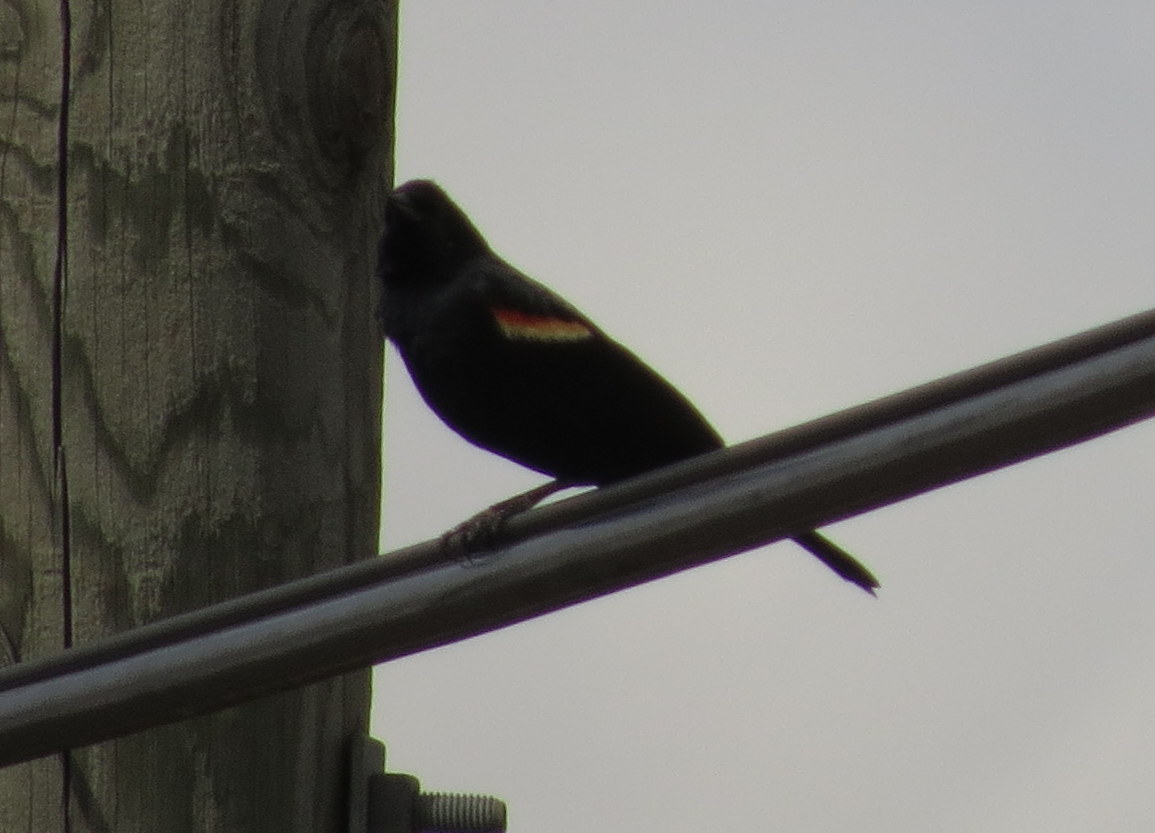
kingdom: Animalia
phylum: Chordata
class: Aves
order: Passeriformes
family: Icteridae
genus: Agelaius
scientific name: Agelaius phoeniceus
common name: Red-winged blackbird
